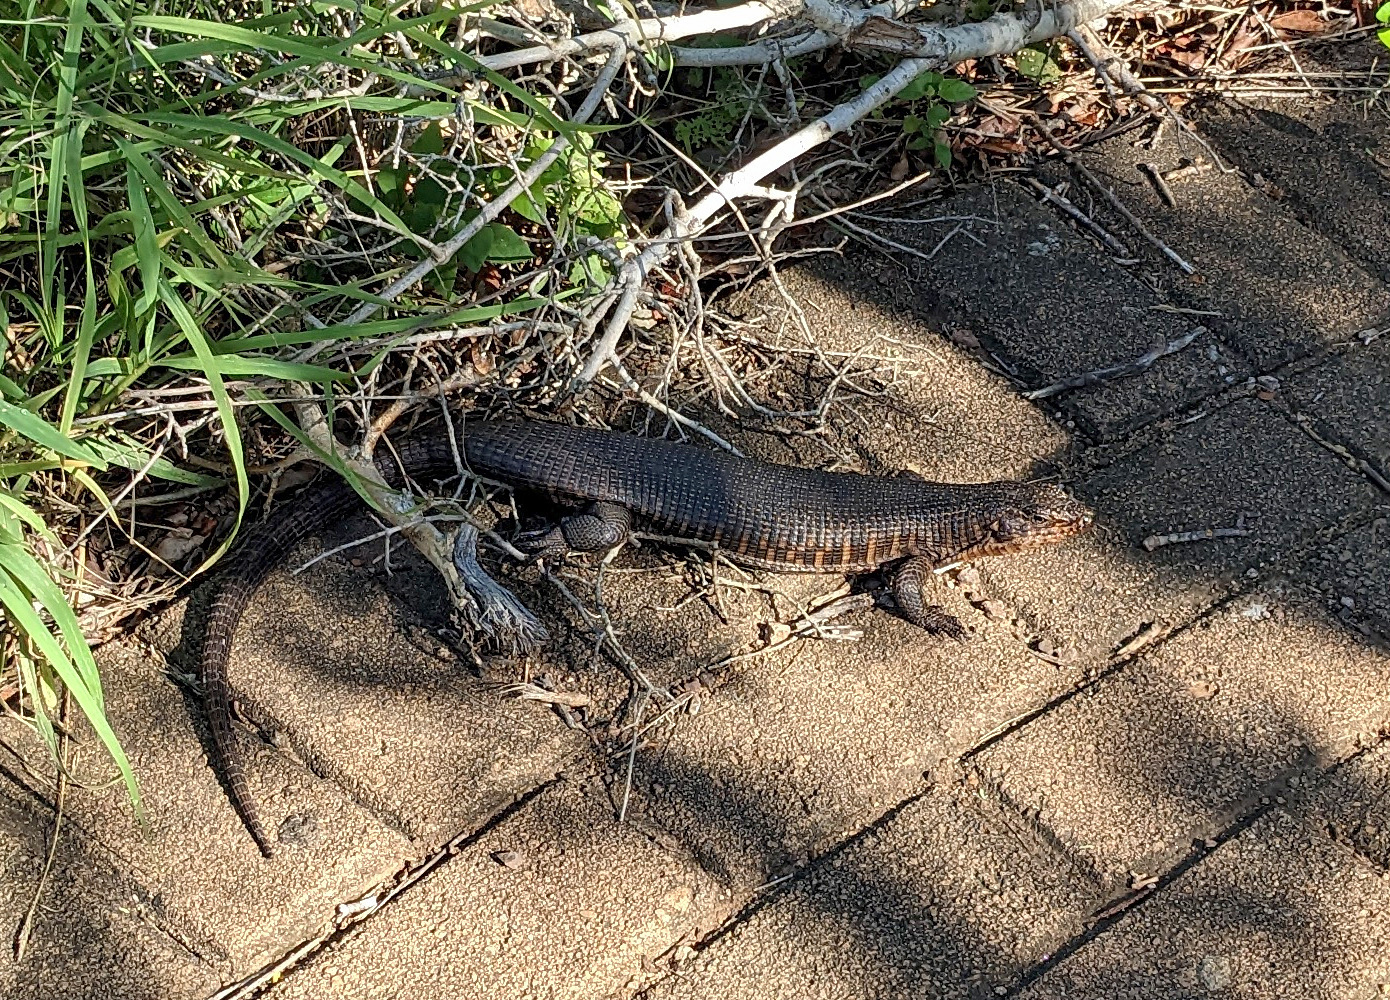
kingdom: Animalia
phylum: Chordata
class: Squamata
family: Gerrhosauridae
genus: Matobosaurus
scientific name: Matobosaurus validus
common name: Common giant plated lizard
